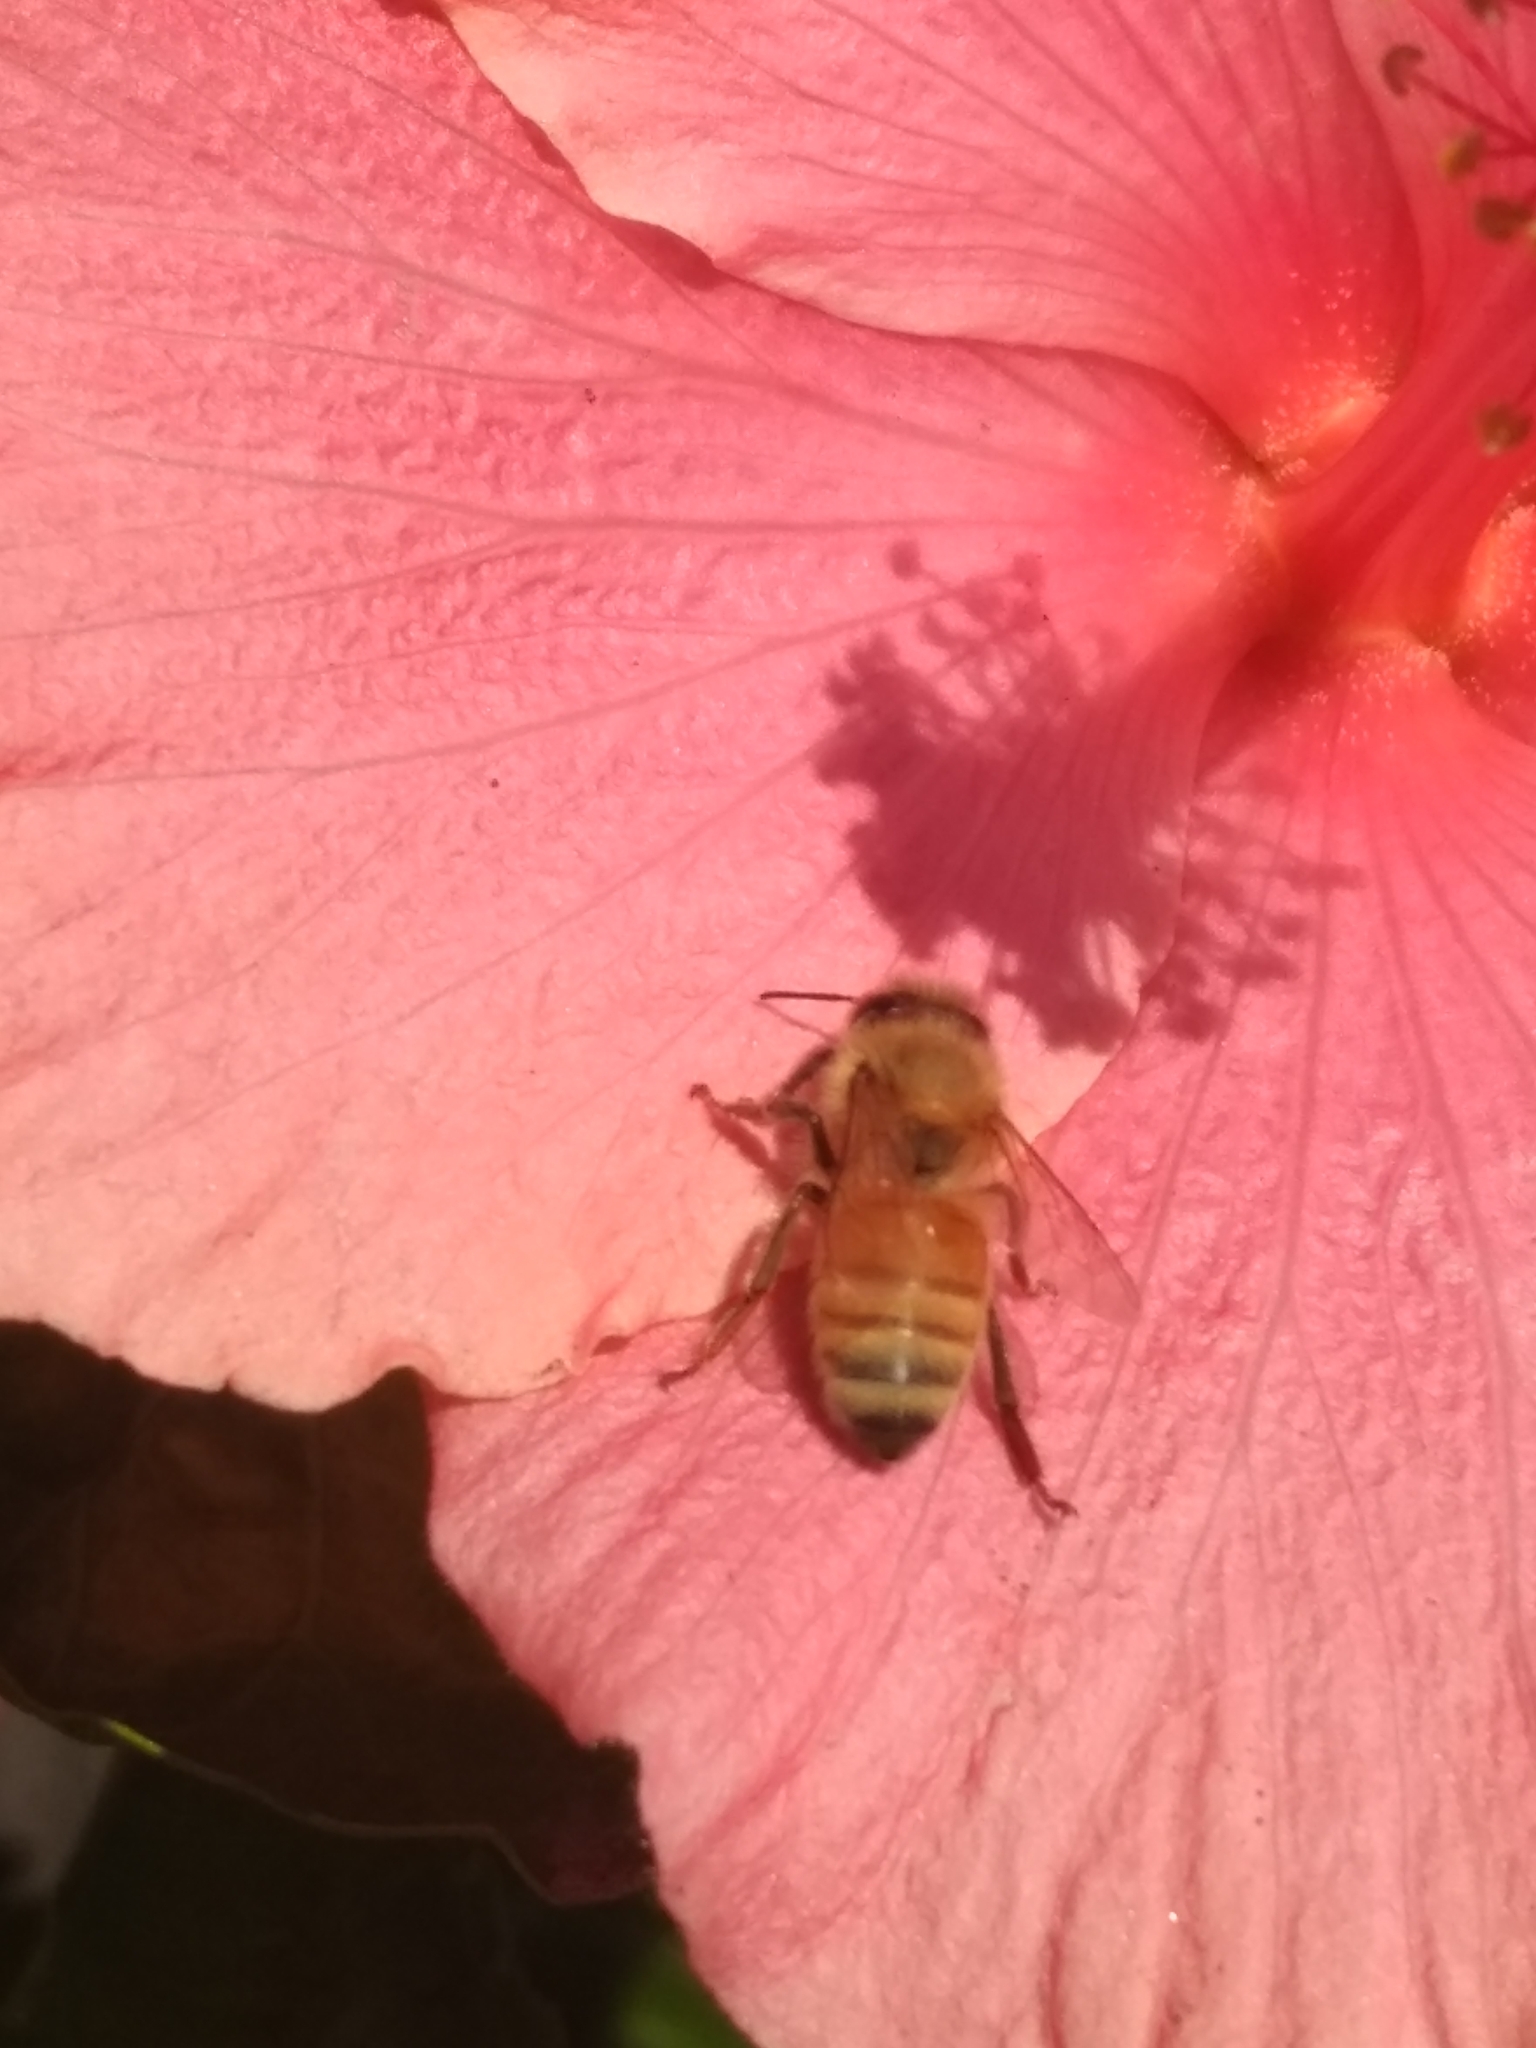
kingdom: Animalia
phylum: Arthropoda
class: Insecta
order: Hymenoptera
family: Apidae
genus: Apis
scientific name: Apis mellifera
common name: Honey bee
